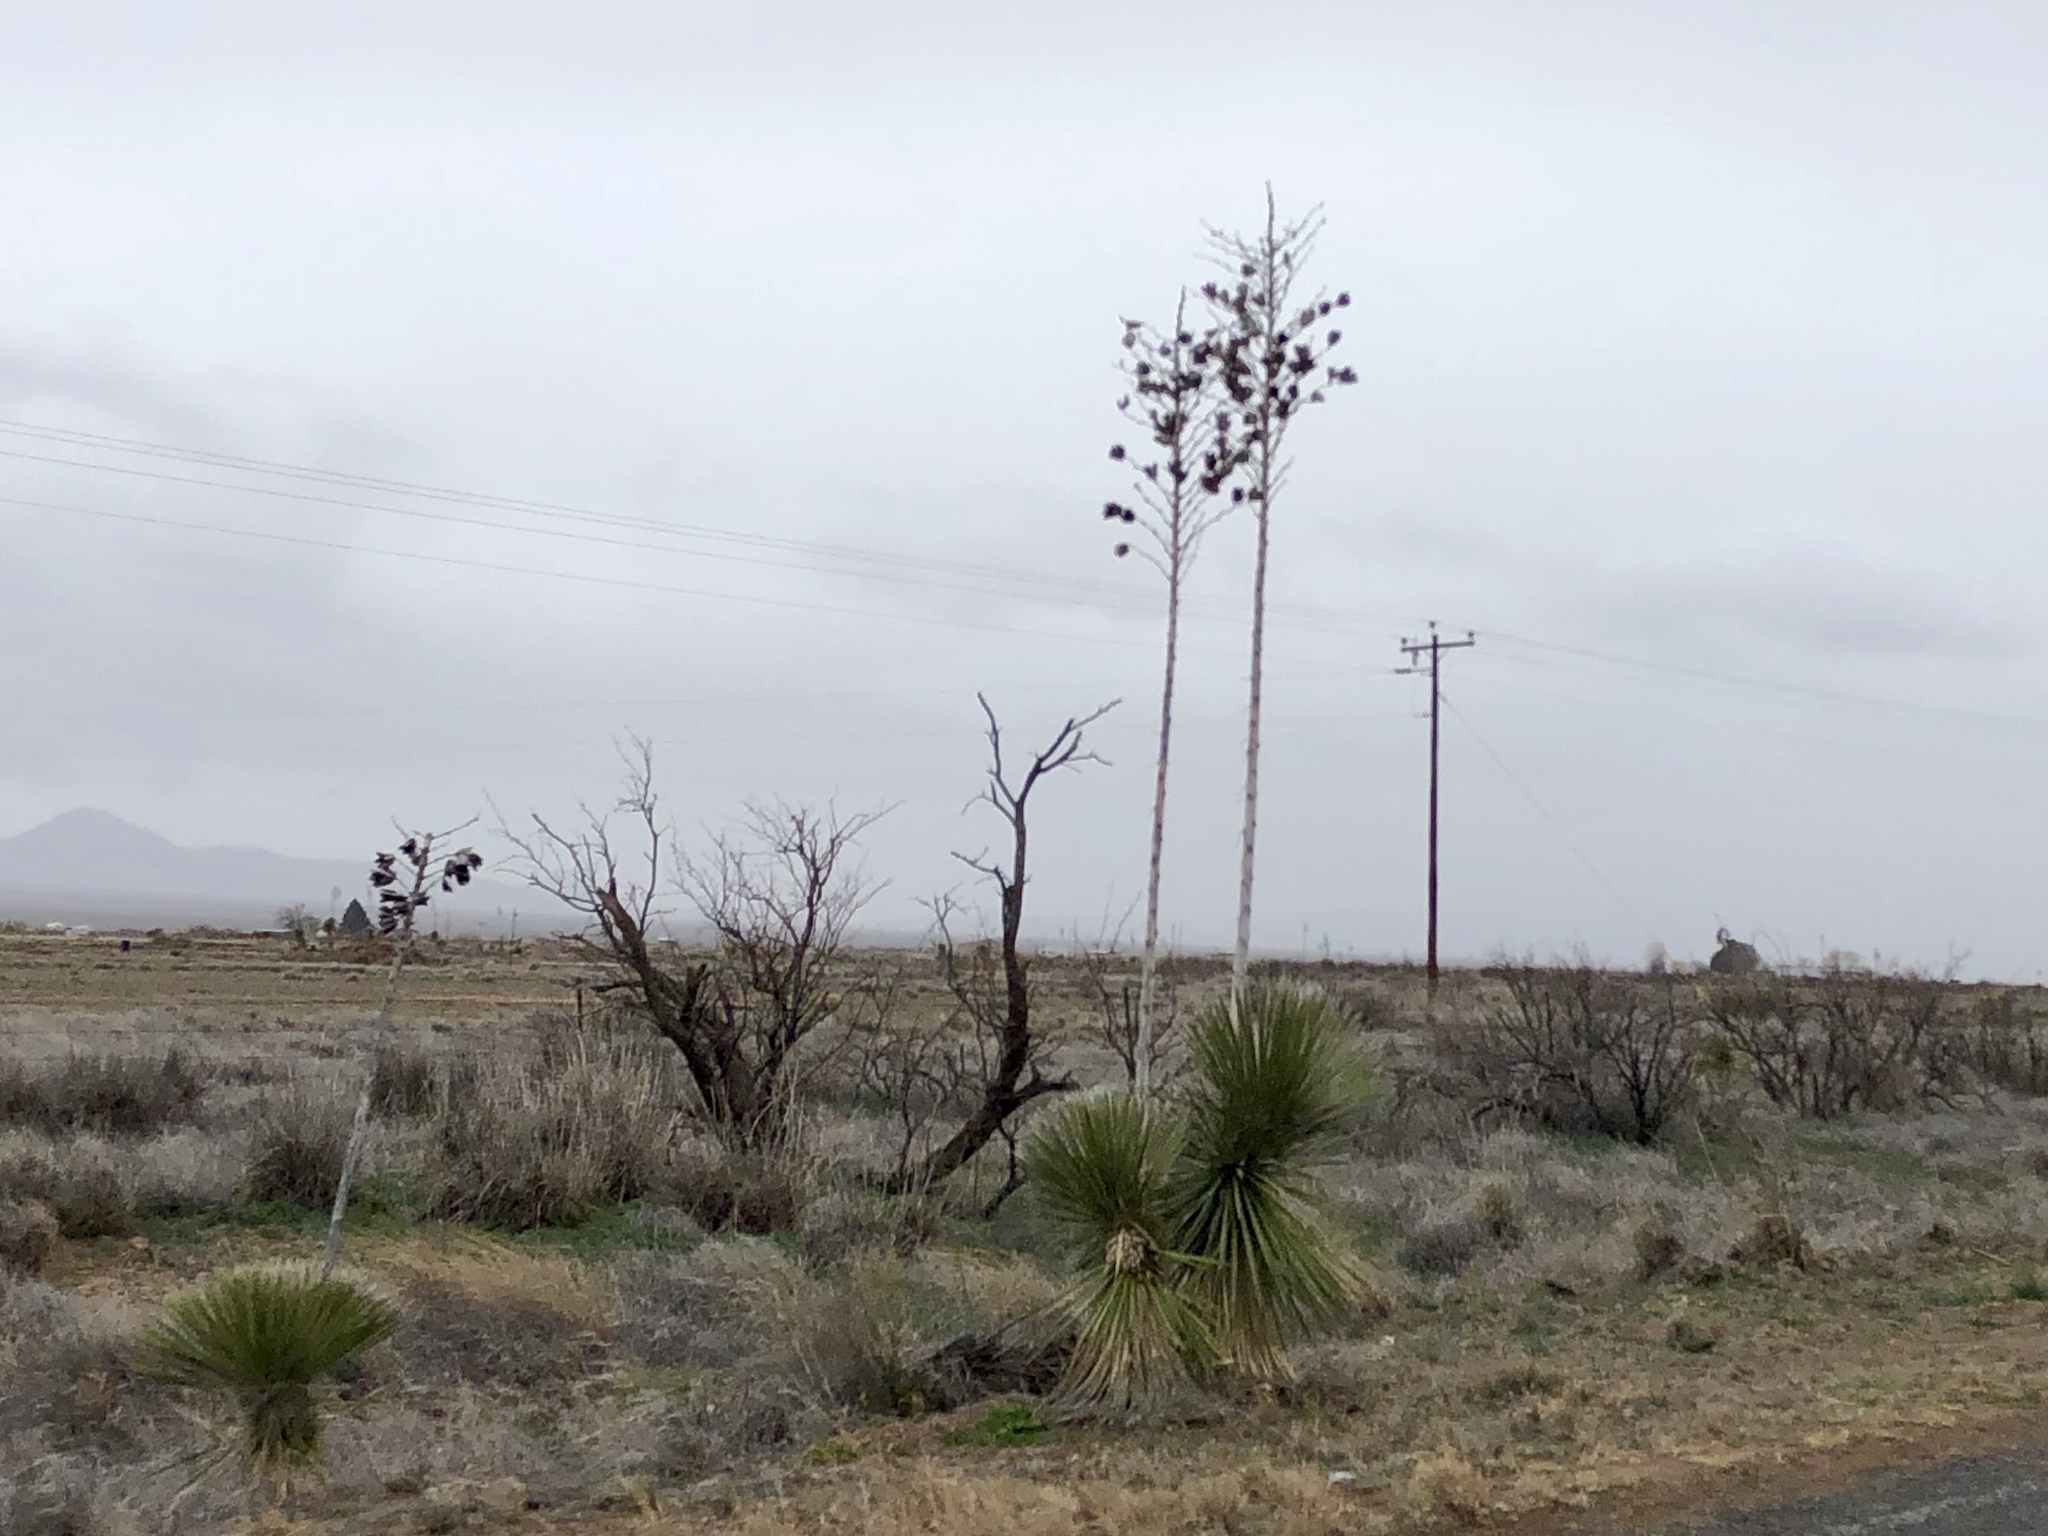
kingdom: Plantae
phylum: Tracheophyta
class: Liliopsida
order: Asparagales
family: Asparagaceae
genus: Yucca
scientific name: Yucca elata
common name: Palmella
